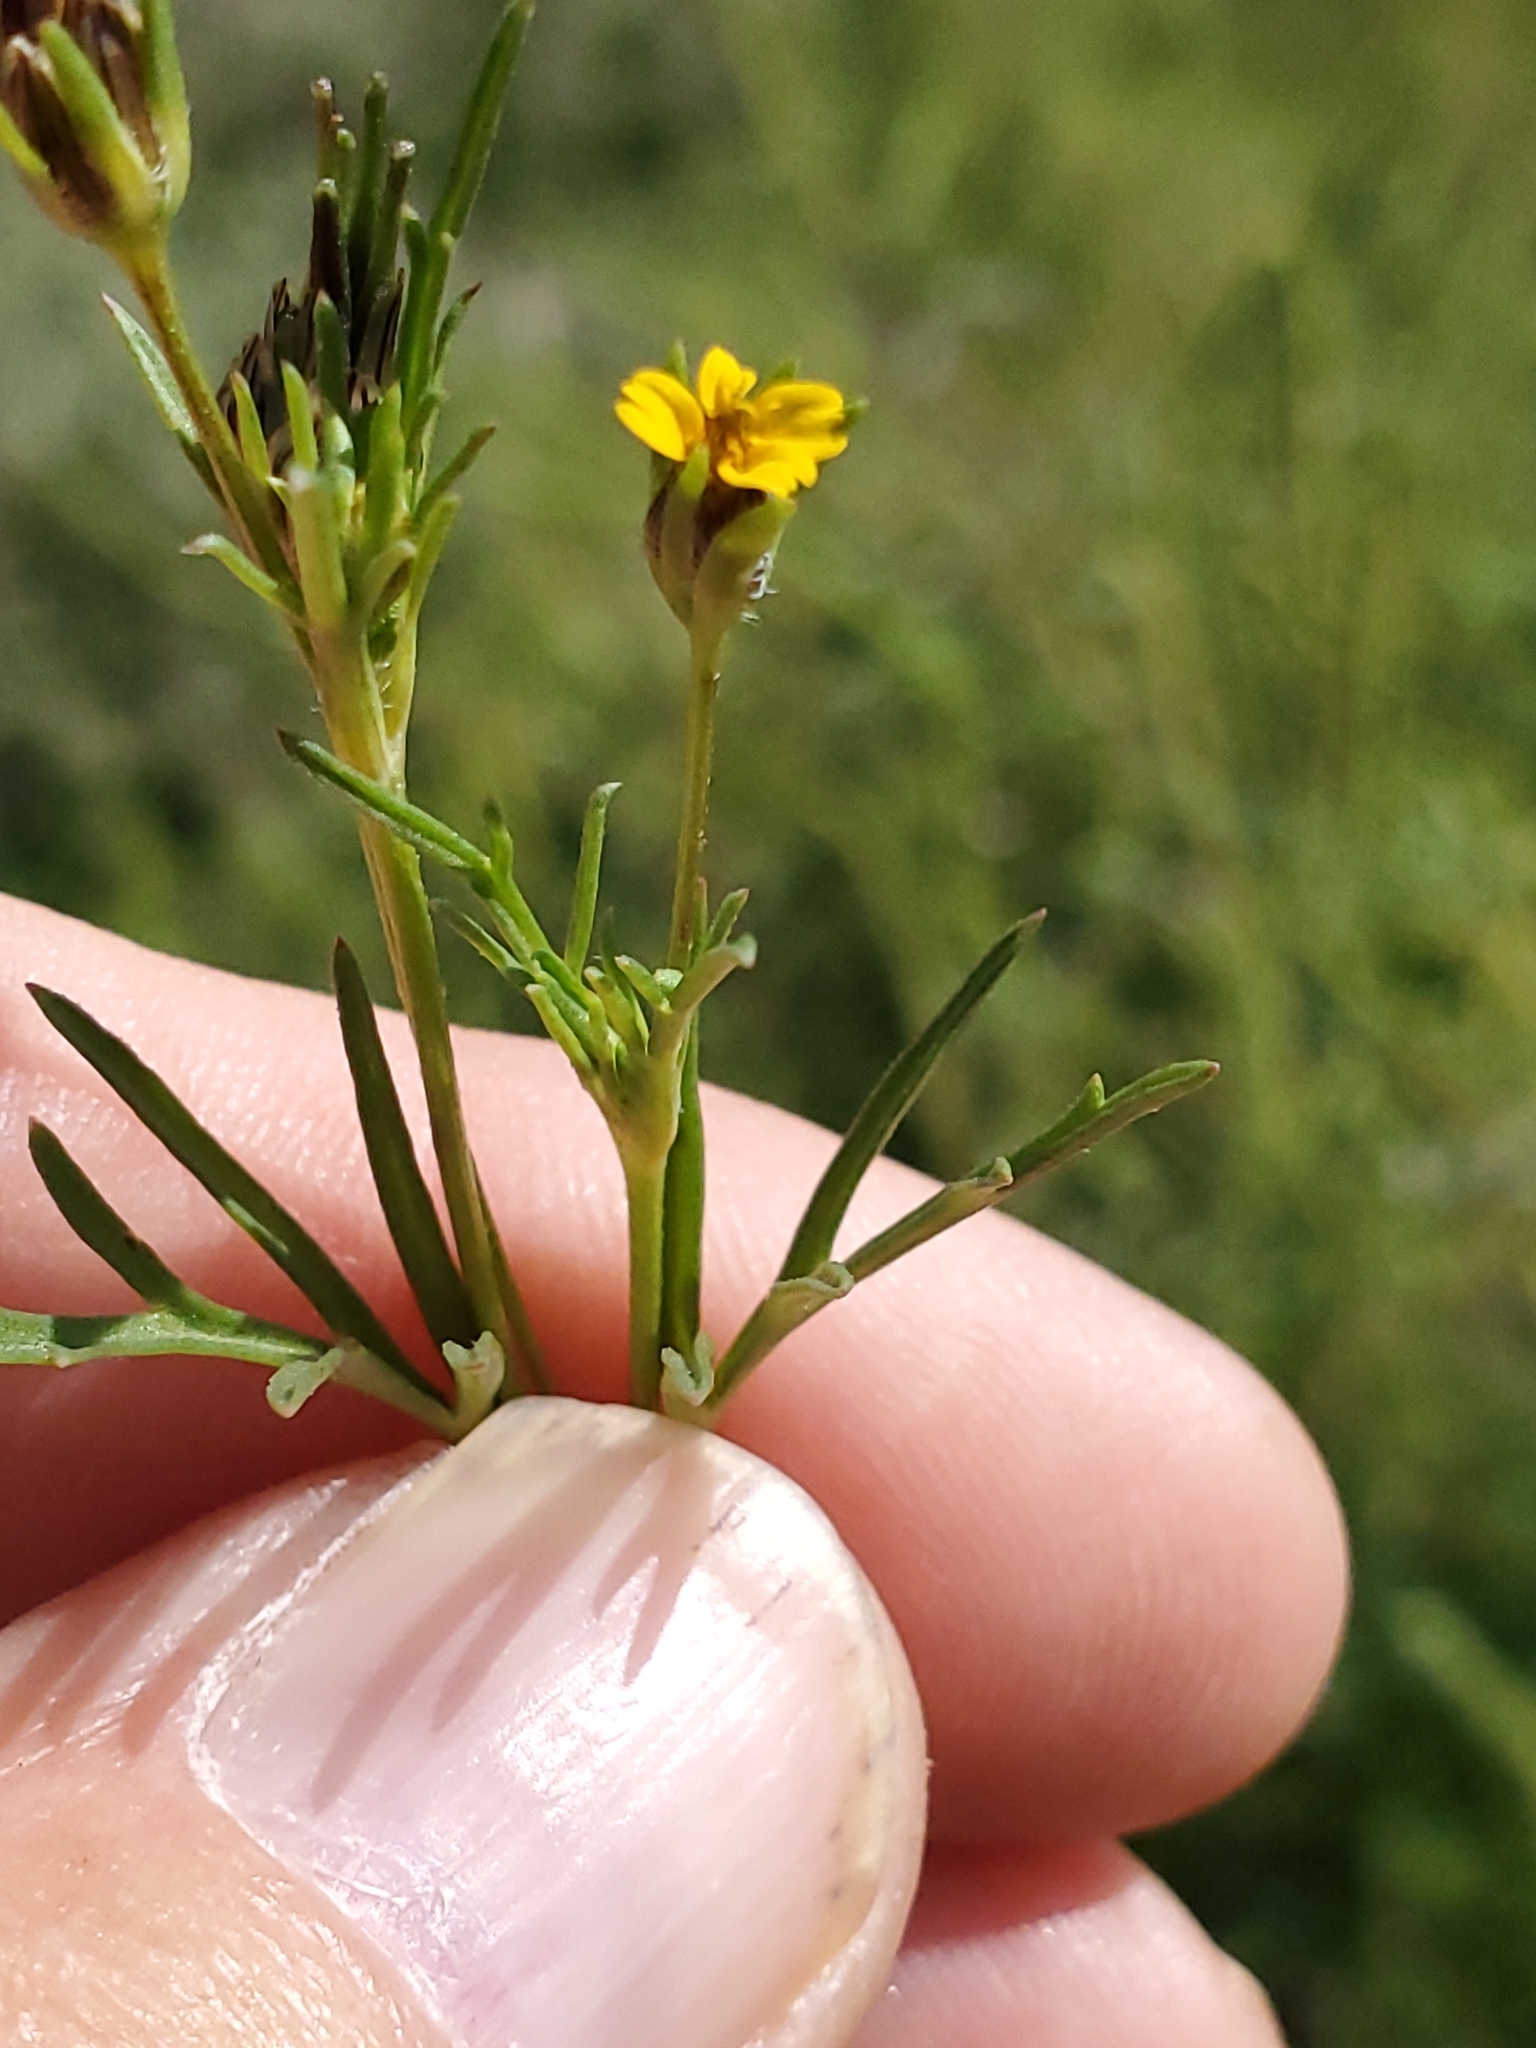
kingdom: Plantae
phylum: Tracheophyta
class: Magnoliopsida
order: Asterales
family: Asteraceae
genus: Heterosperma
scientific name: Heterosperma pinnatum
